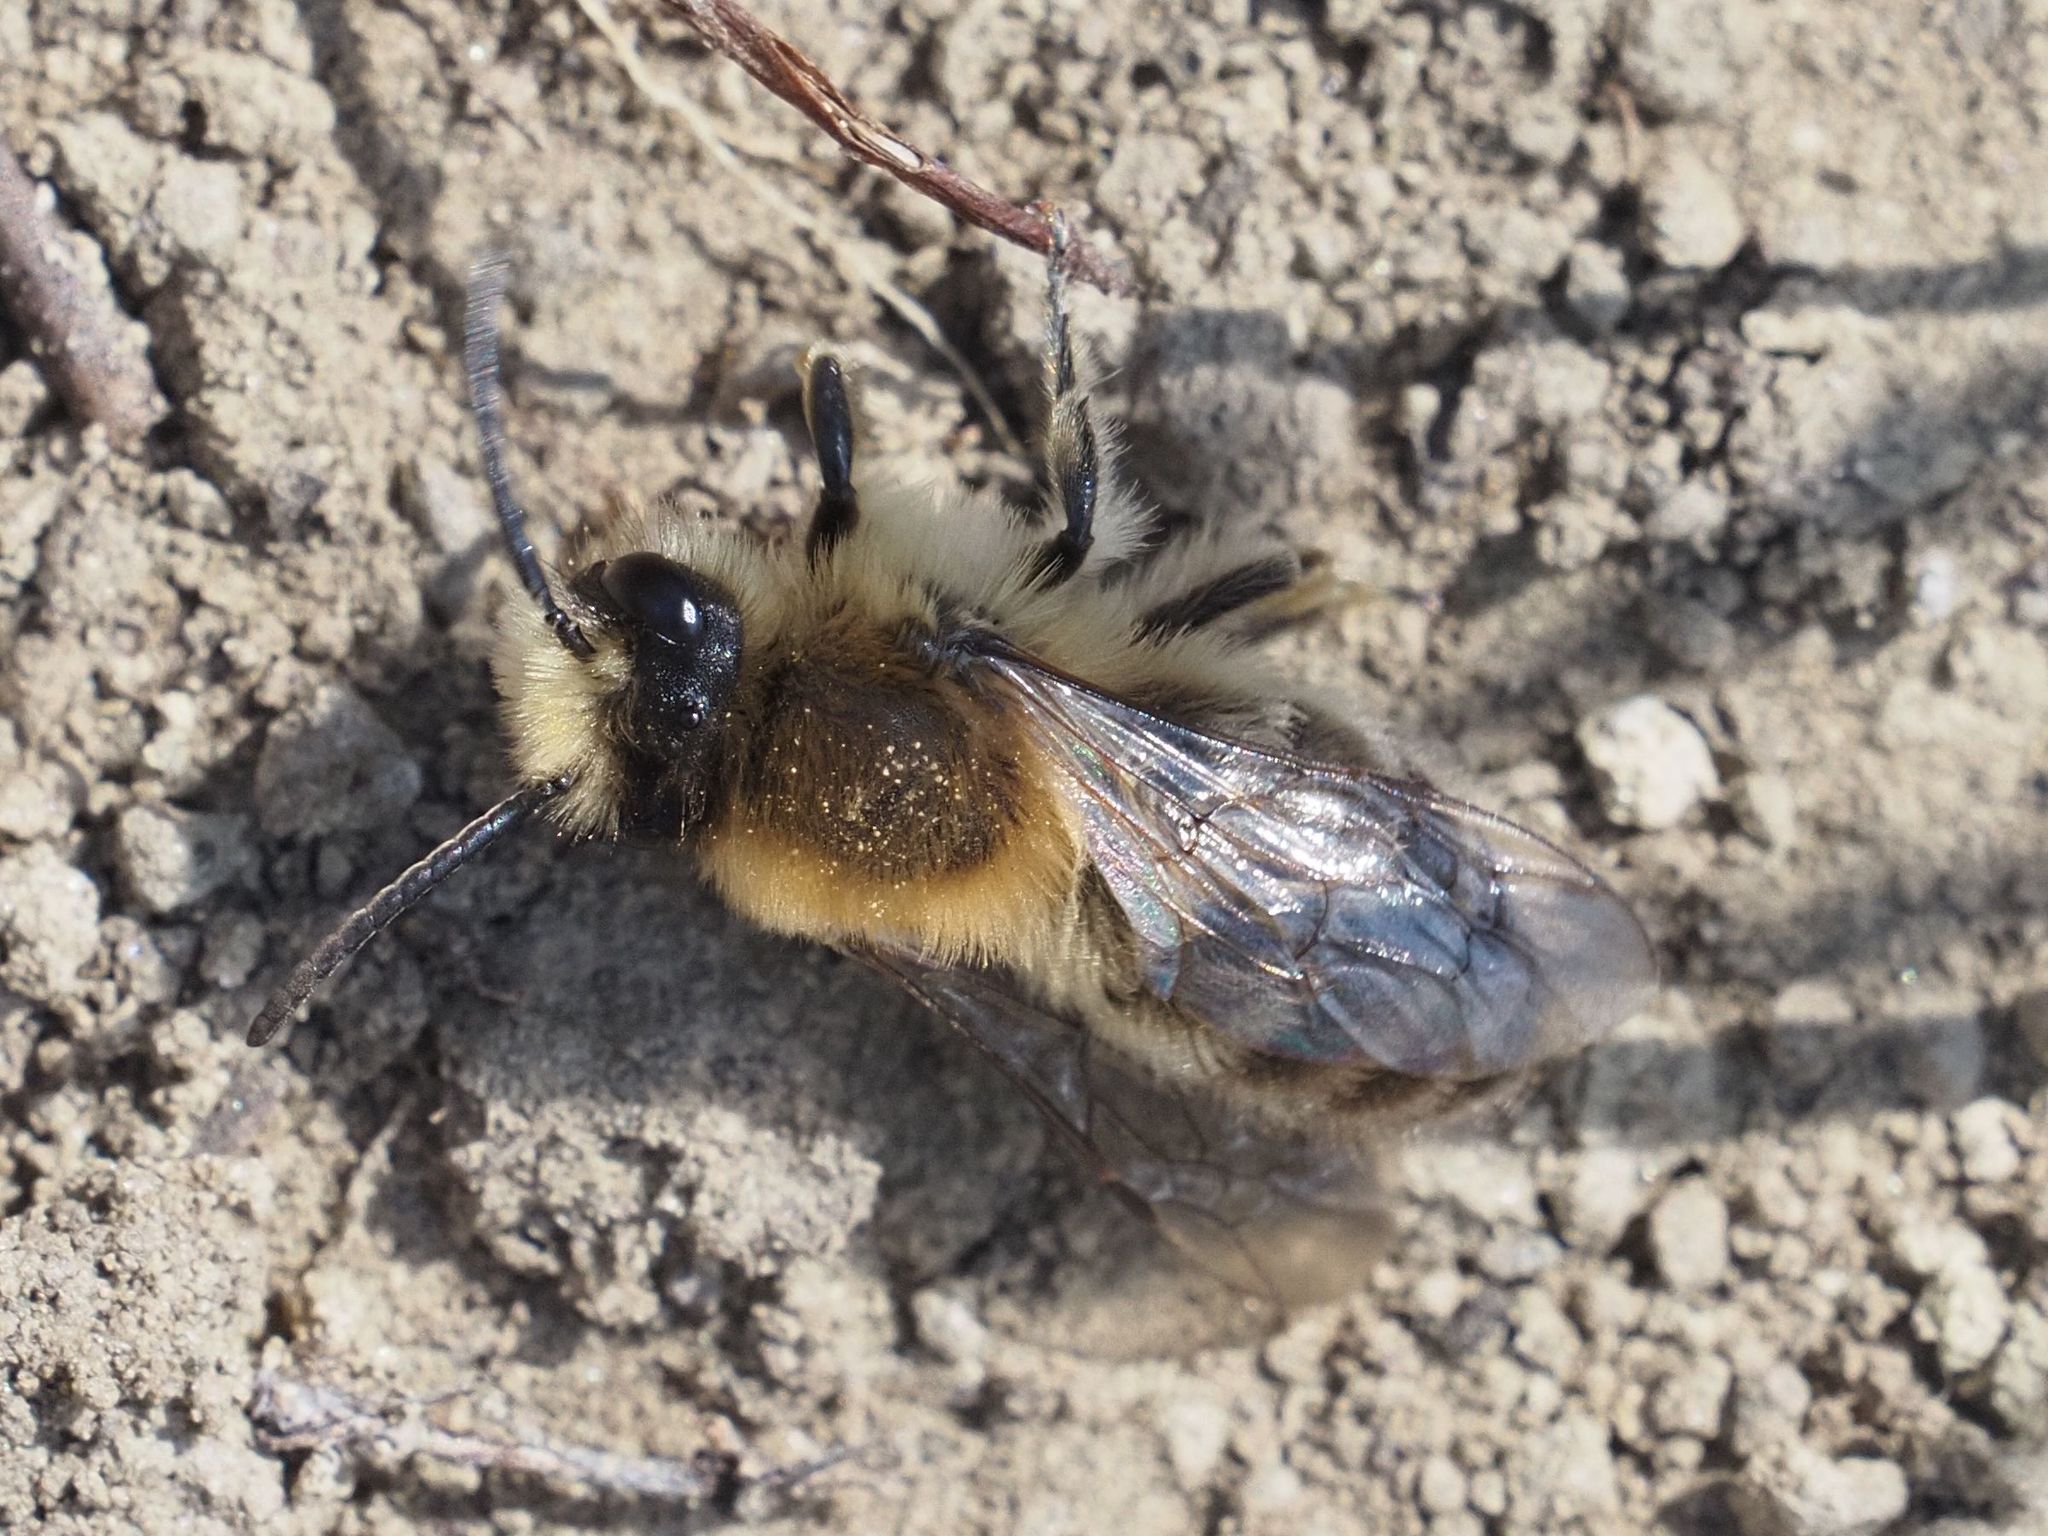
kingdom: Animalia
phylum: Arthropoda
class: Insecta
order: Hymenoptera
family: Colletidae
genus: Colletes
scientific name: Colletes cunicularius
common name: Early colletes
